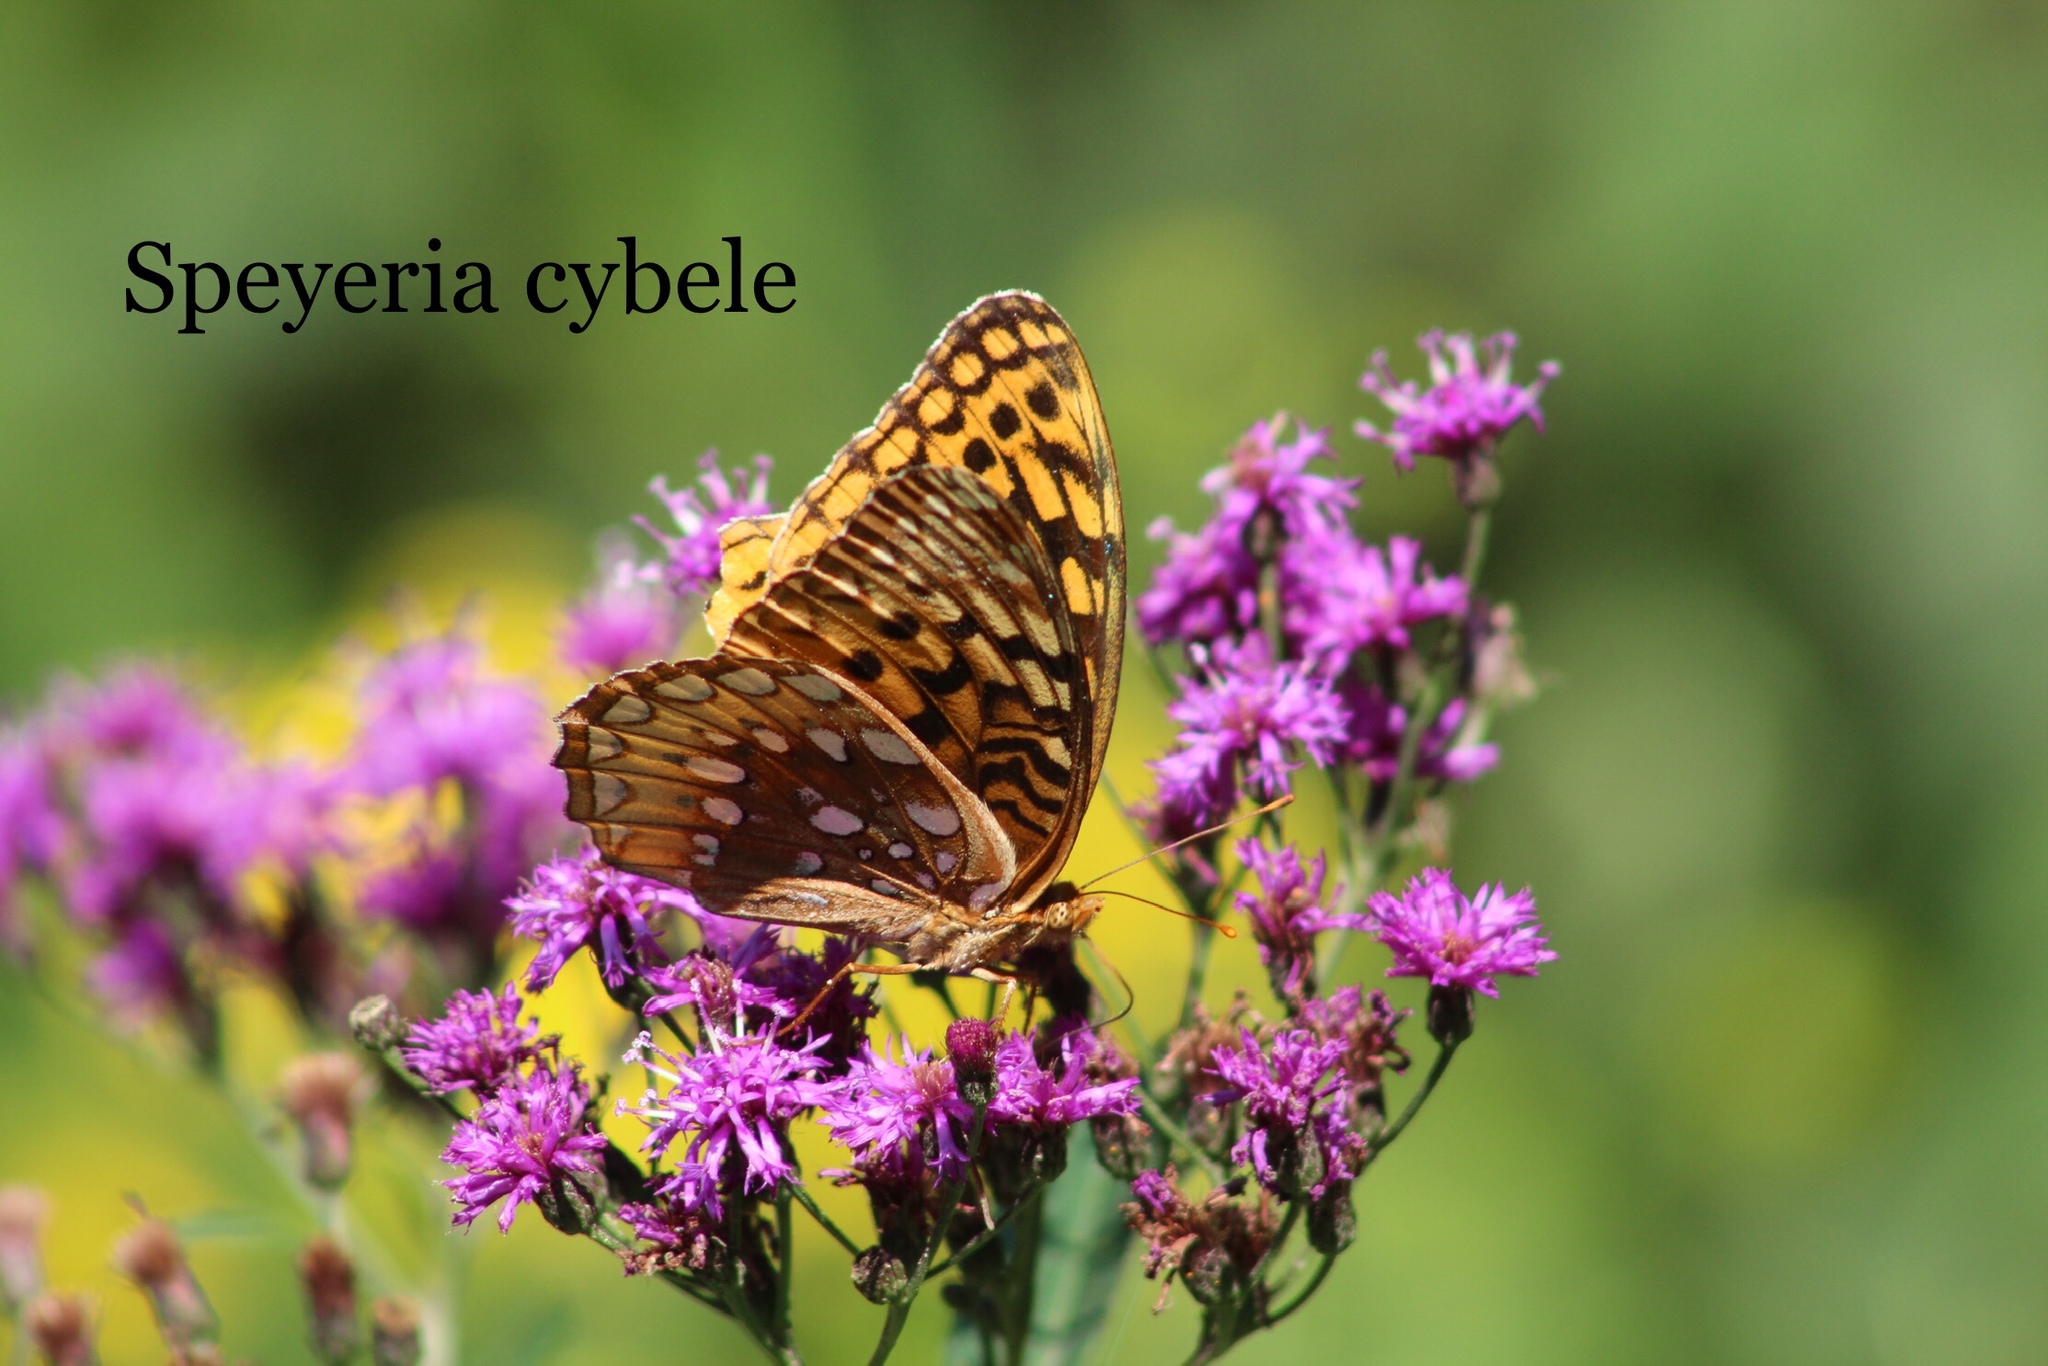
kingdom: Animalia
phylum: Arthropoda
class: Insecta
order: Lepidoptera
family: Nymphalidae
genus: Speyeria
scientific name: Speyeria cybele
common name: Great spangled fritillary
